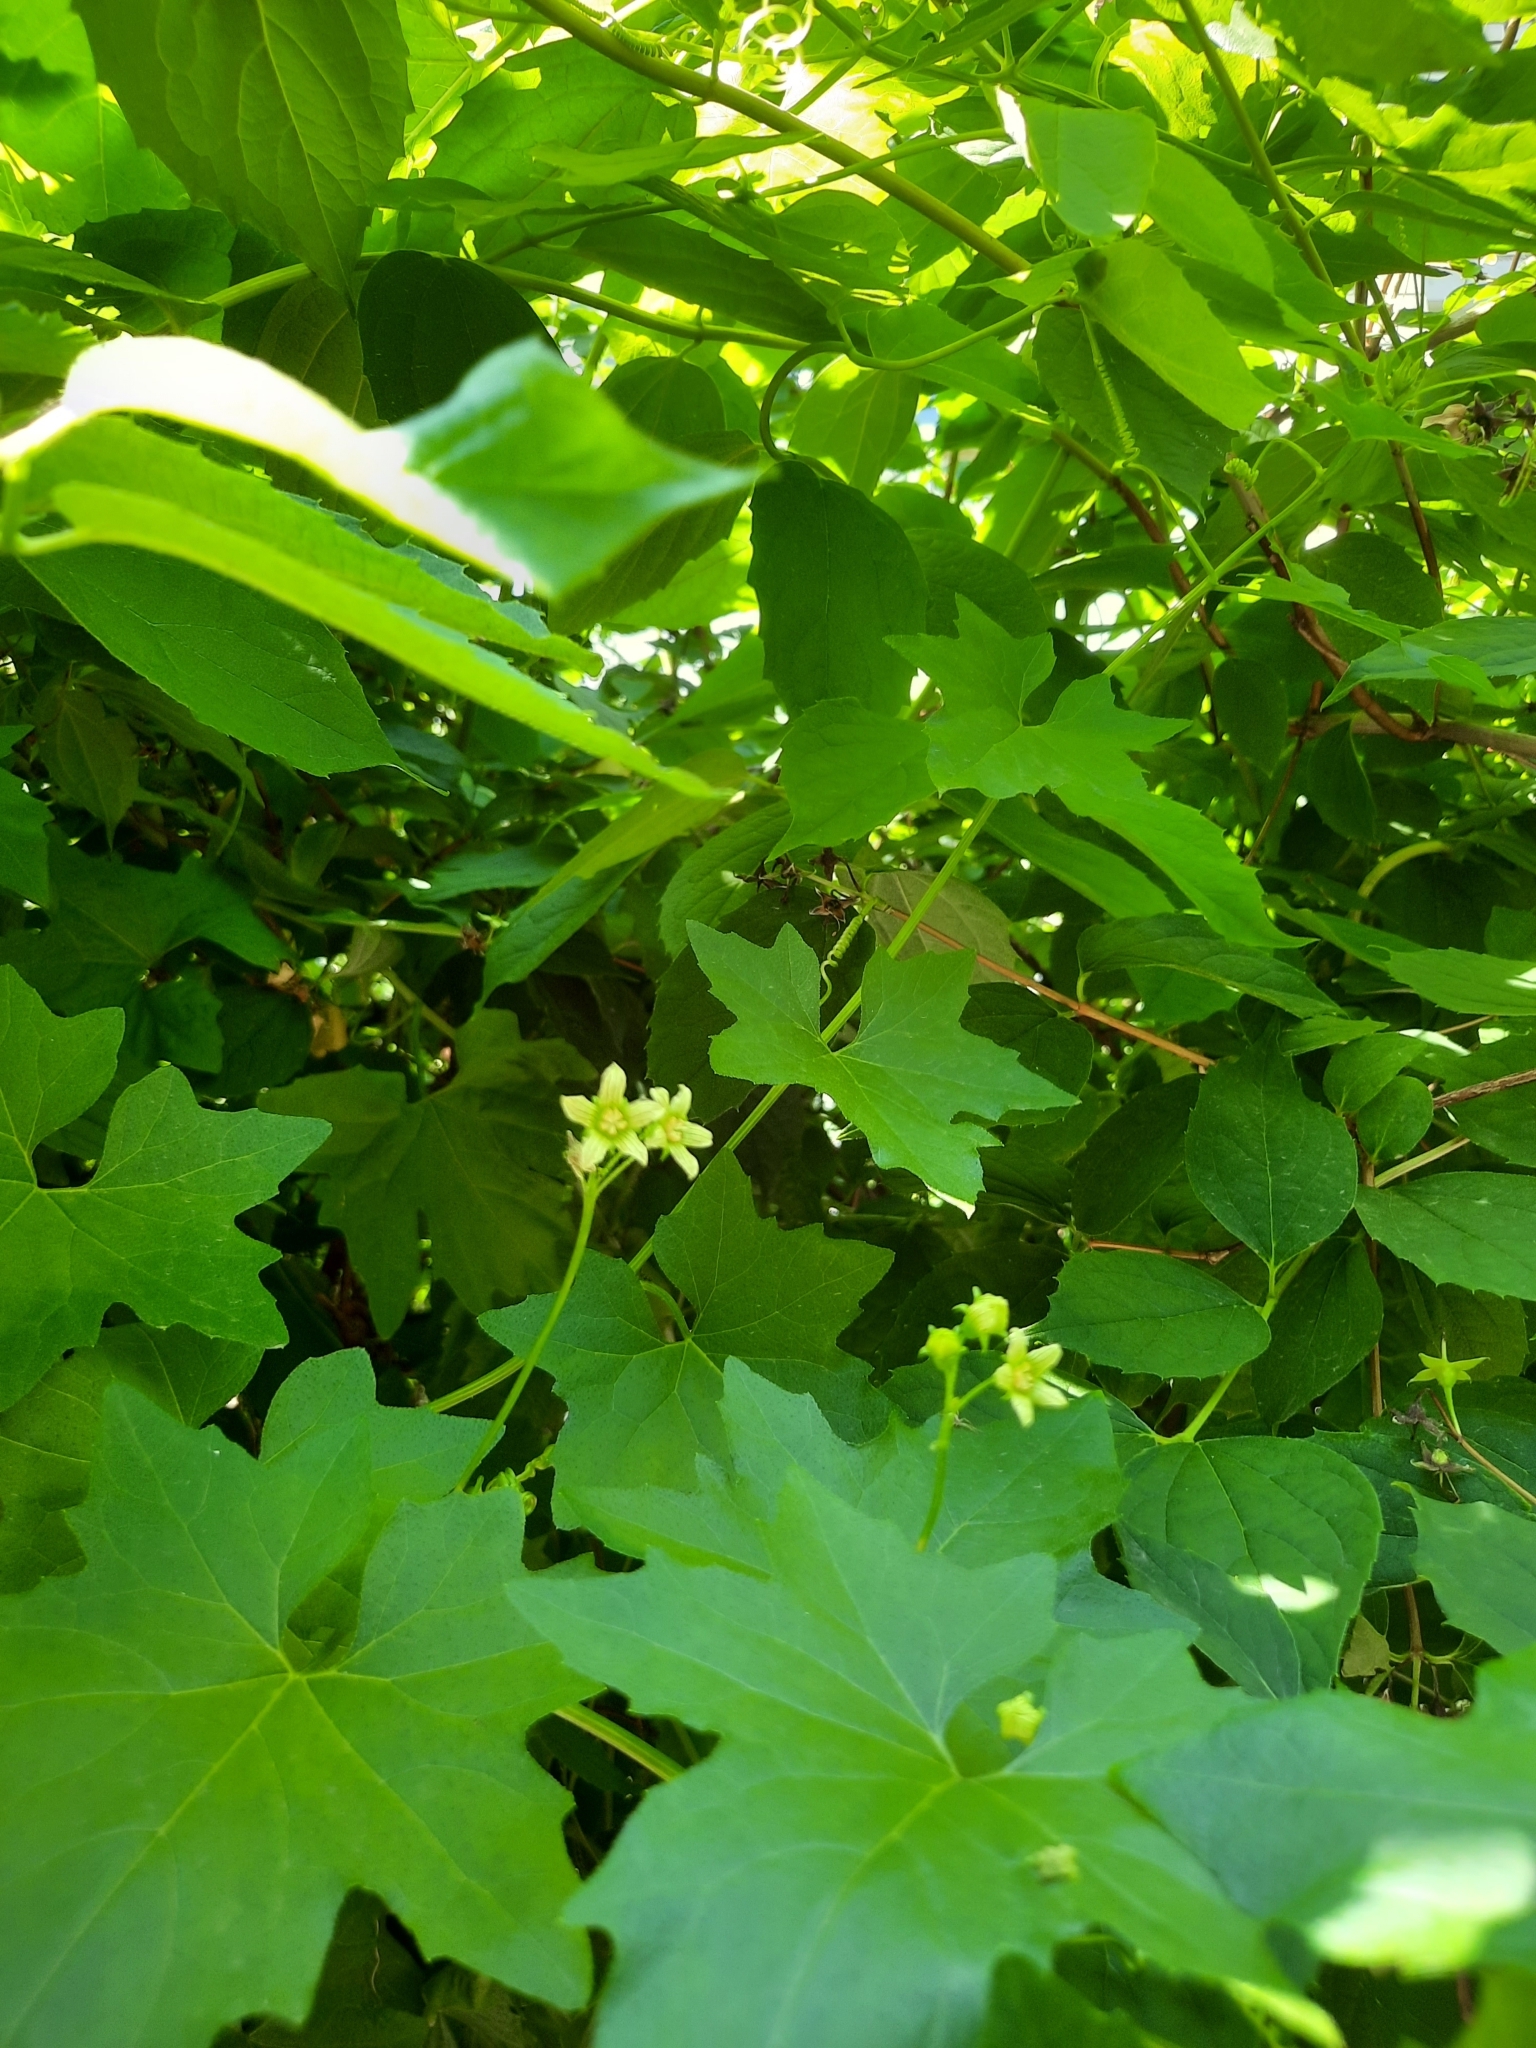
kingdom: Plantae
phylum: Tracheophyta
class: Magnoliopsida
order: Cucurbitales
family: Cucurbitaceae
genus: Bryonia
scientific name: Bryonia alba
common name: White bryony
